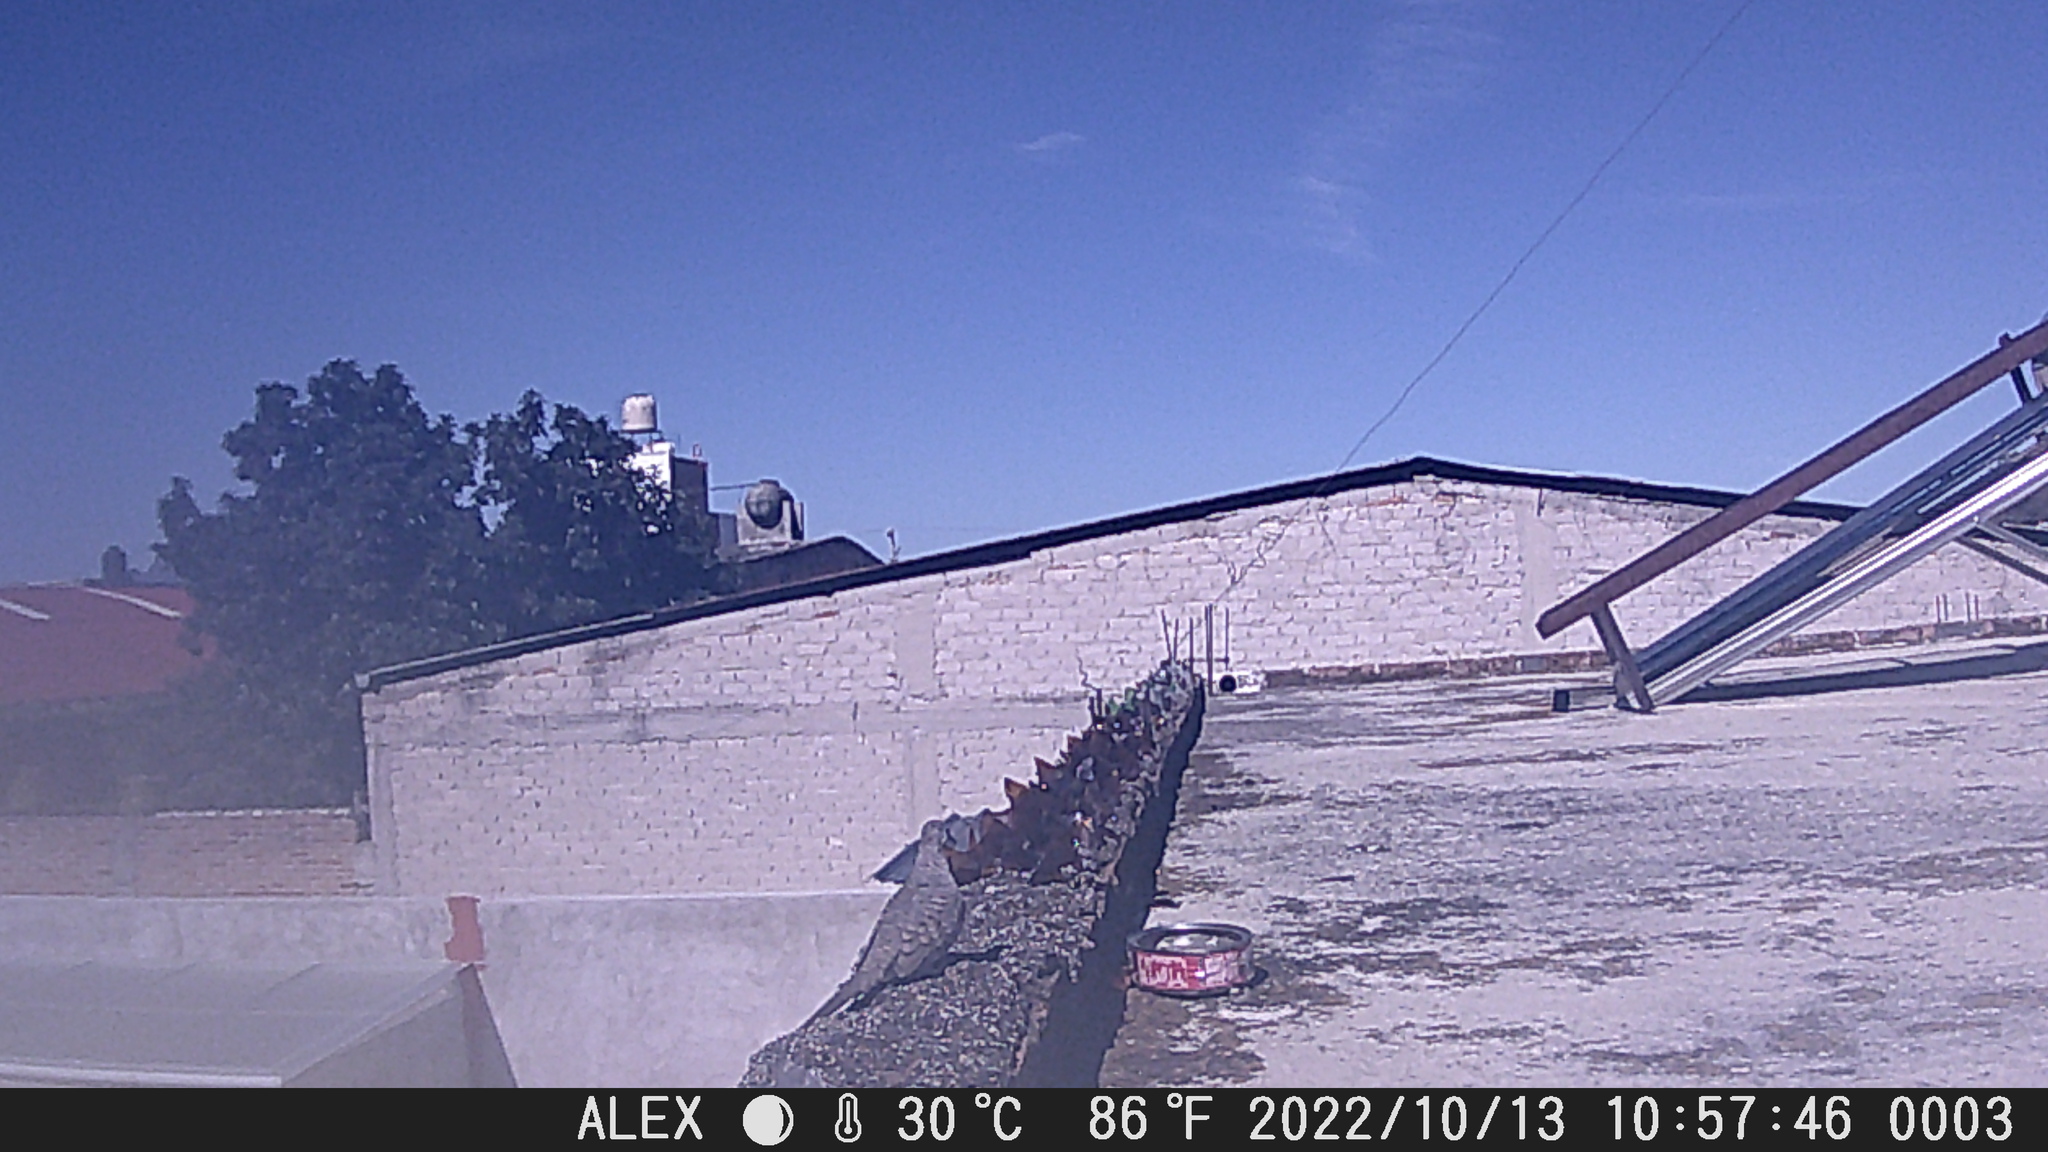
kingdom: Animalia
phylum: Chordata
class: Aves
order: Columbiformes
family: Columbidae
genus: Columbina
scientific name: Columbina inca
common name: Inca dove
